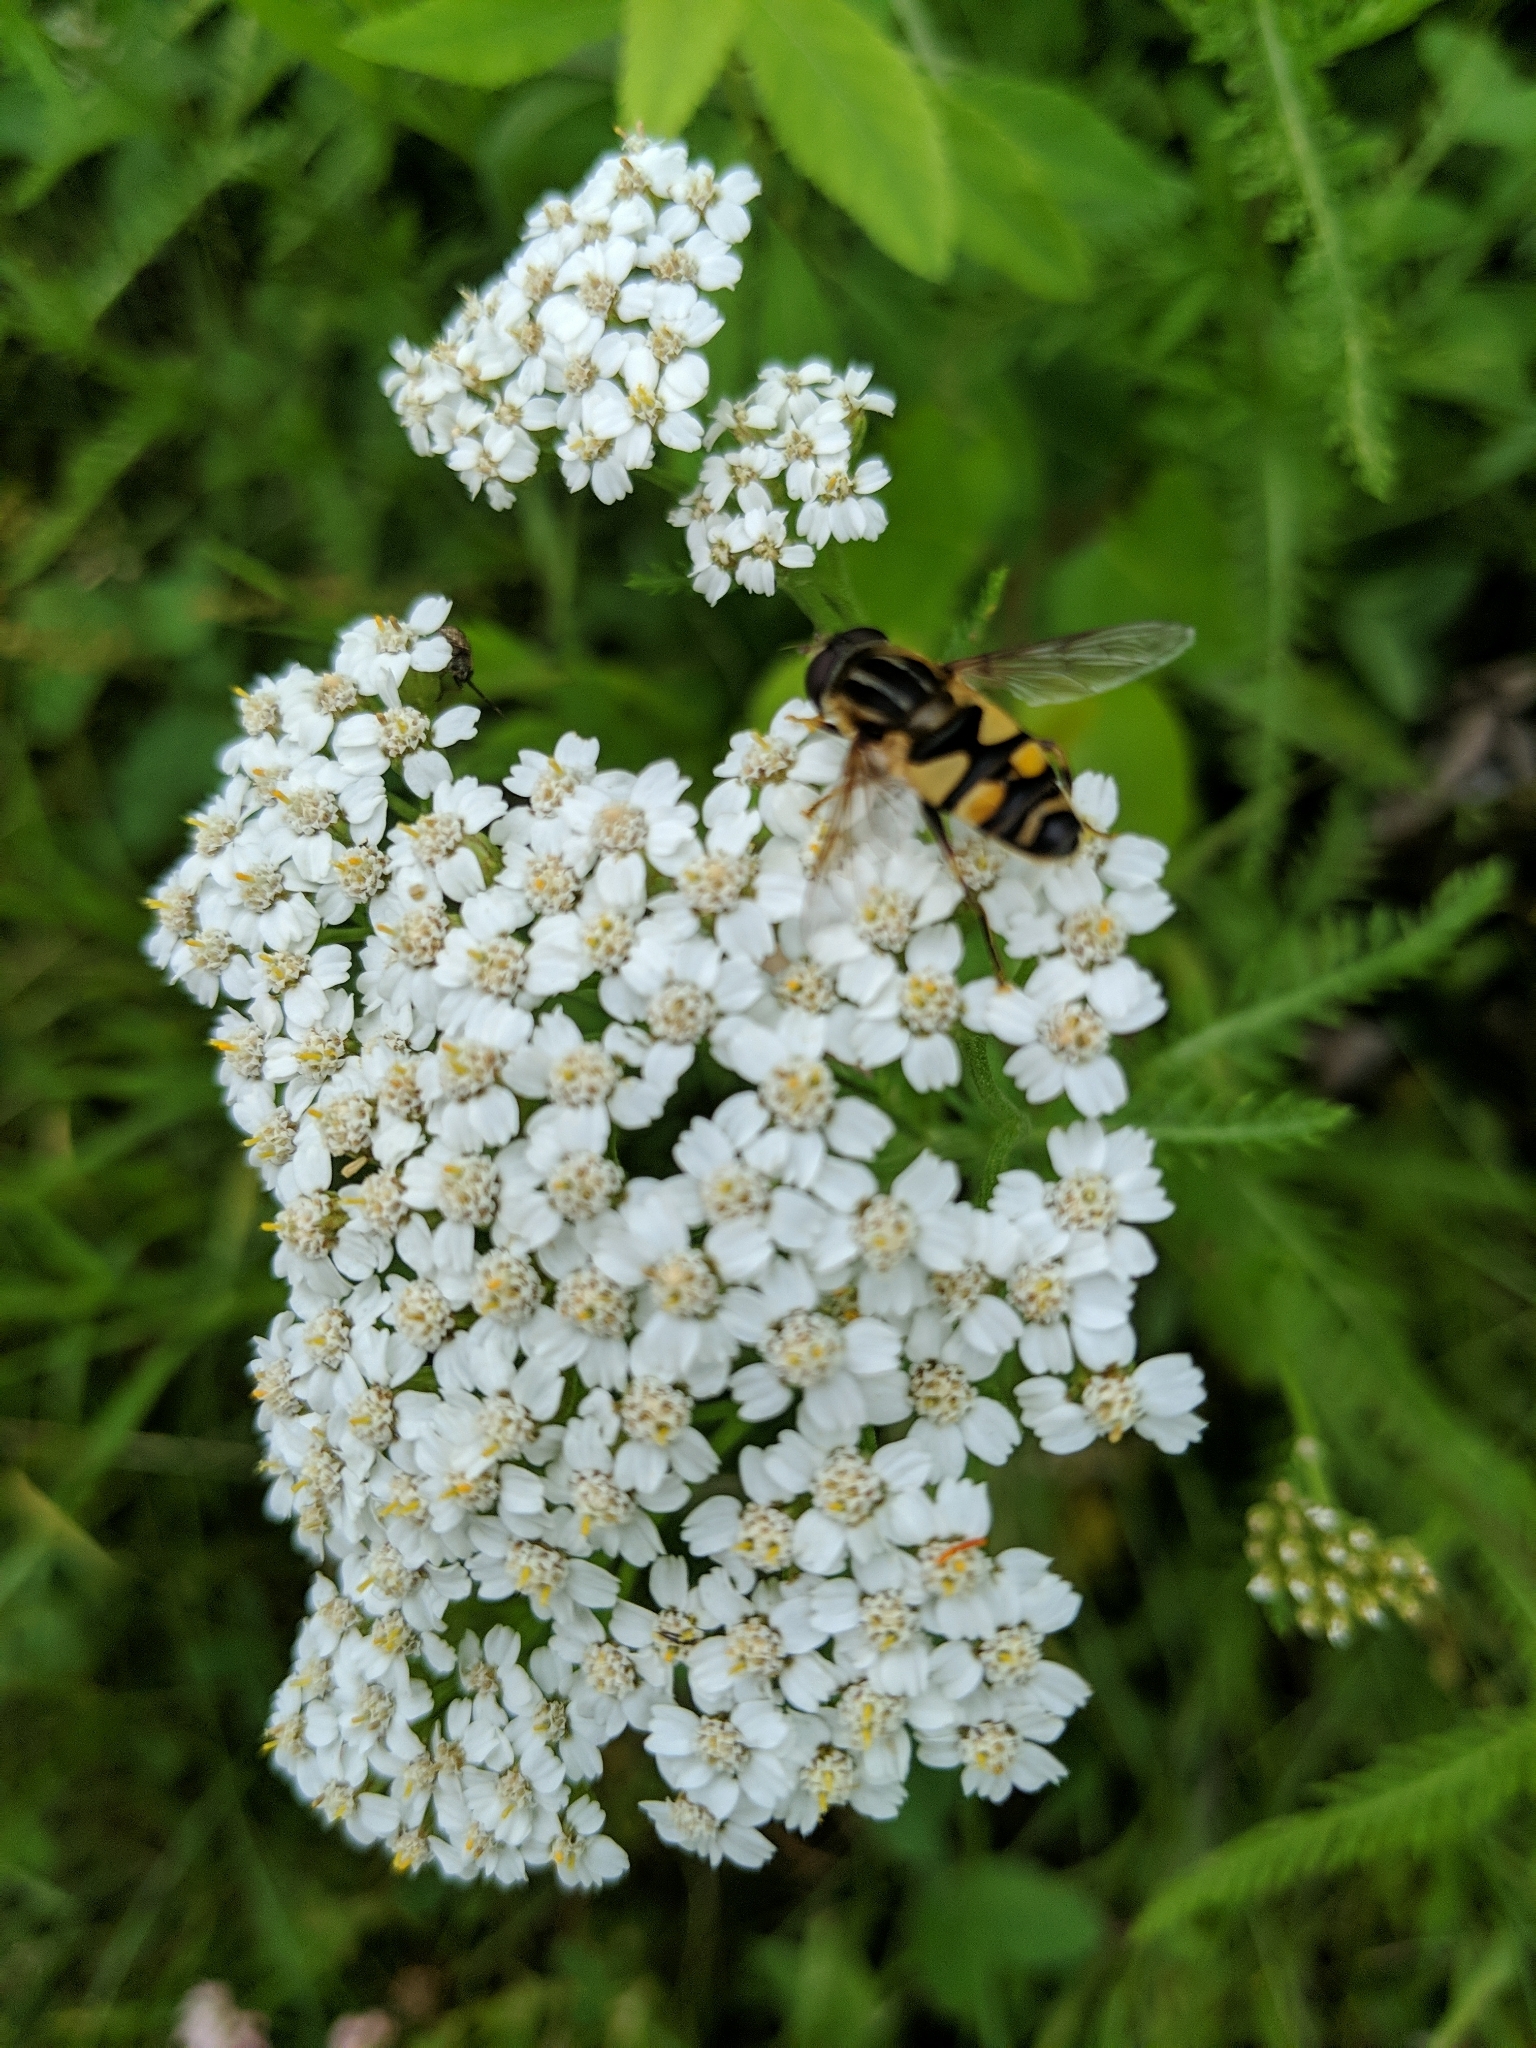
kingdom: Animalia
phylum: Arthropoda
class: Insecta
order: Diptera
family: Syrphidae
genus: Helophilus
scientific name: Helophilus fasciatus
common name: Narrow-headed marsh fly
